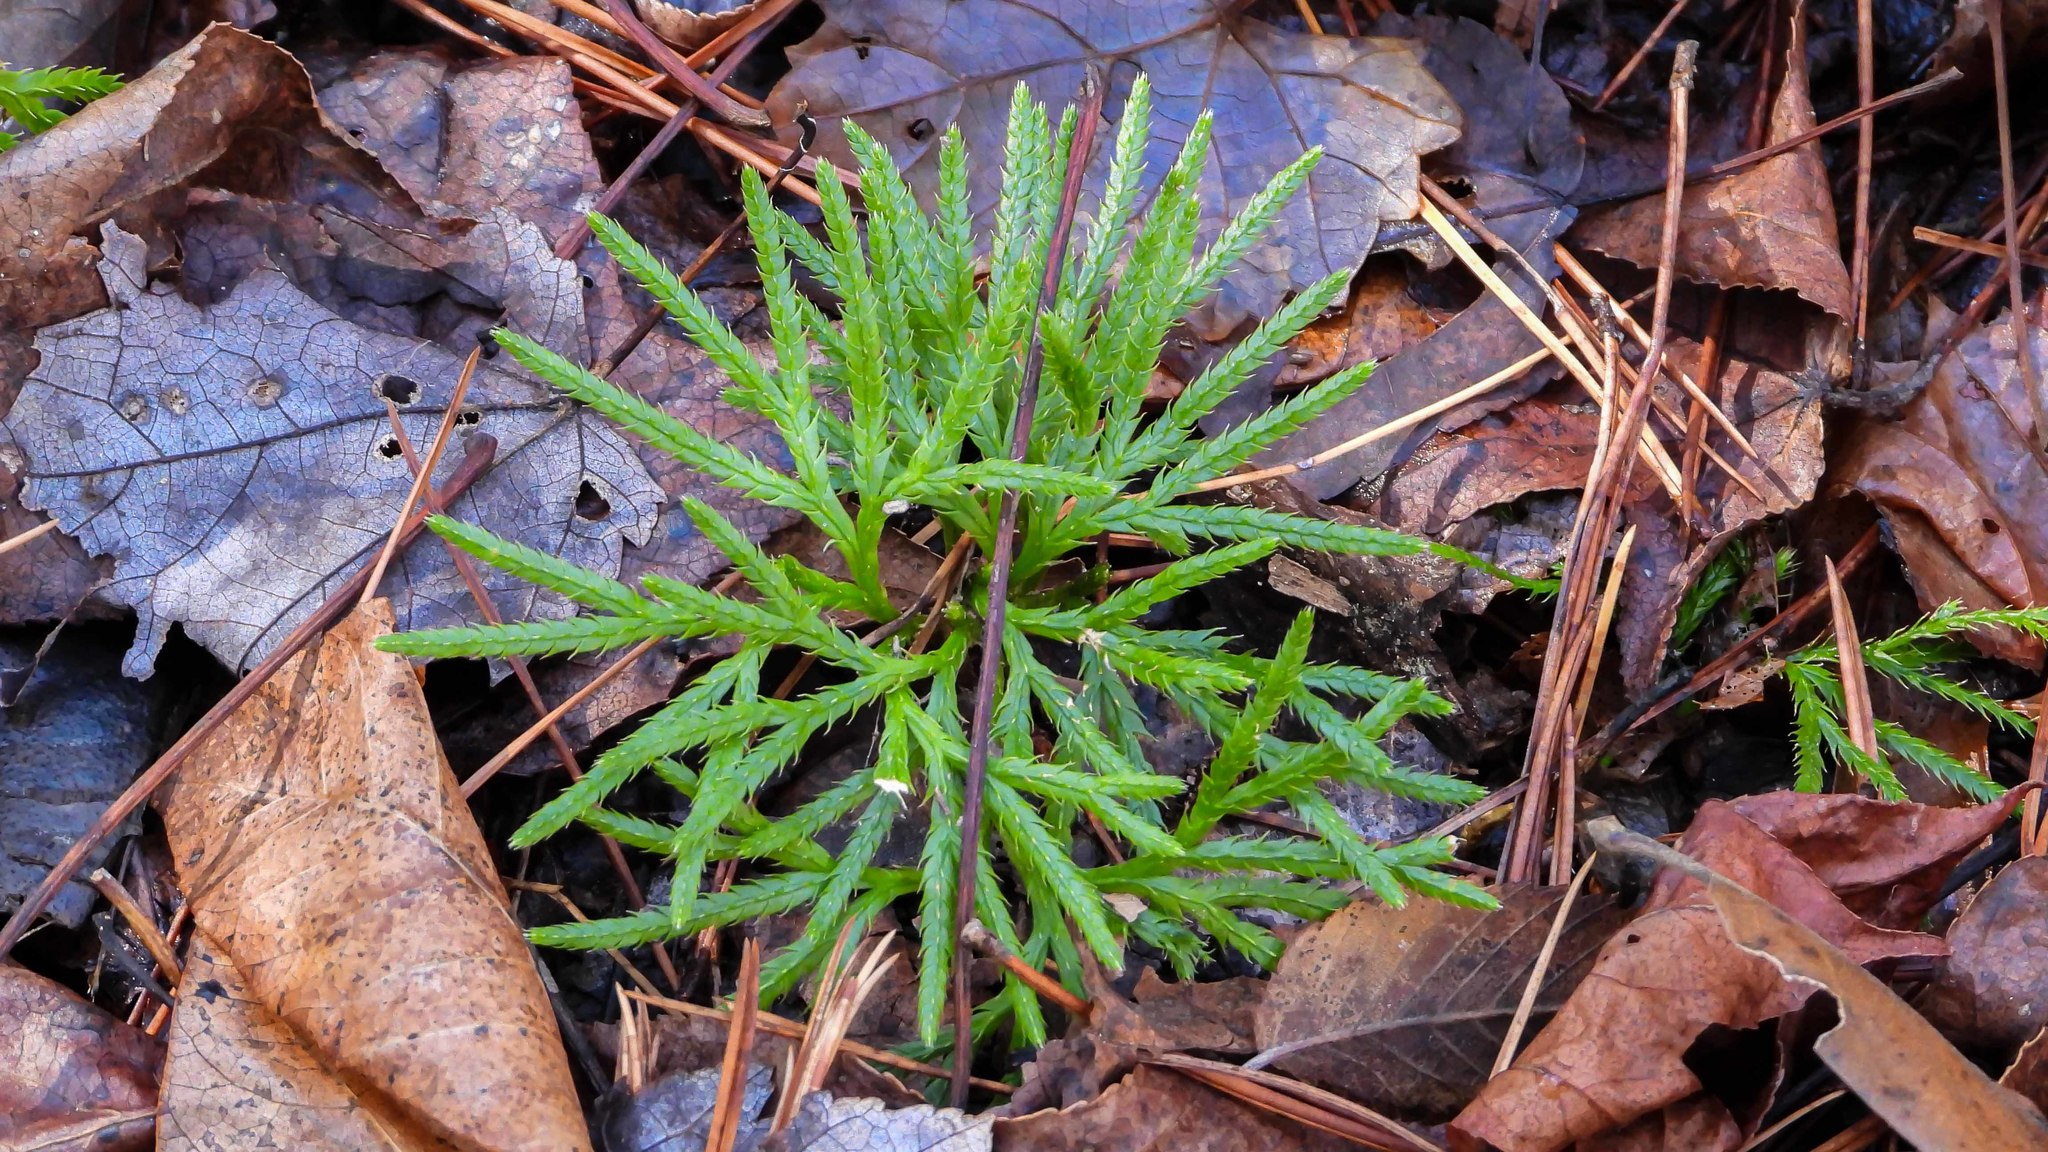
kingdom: Plantae
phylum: Tracheophyta
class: Lycopodiopsida
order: Lycopodiales
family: Lycopodiaceae
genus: Diphasiastrum
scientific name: Diphasiastrum digitatum
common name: Southern running-pine
